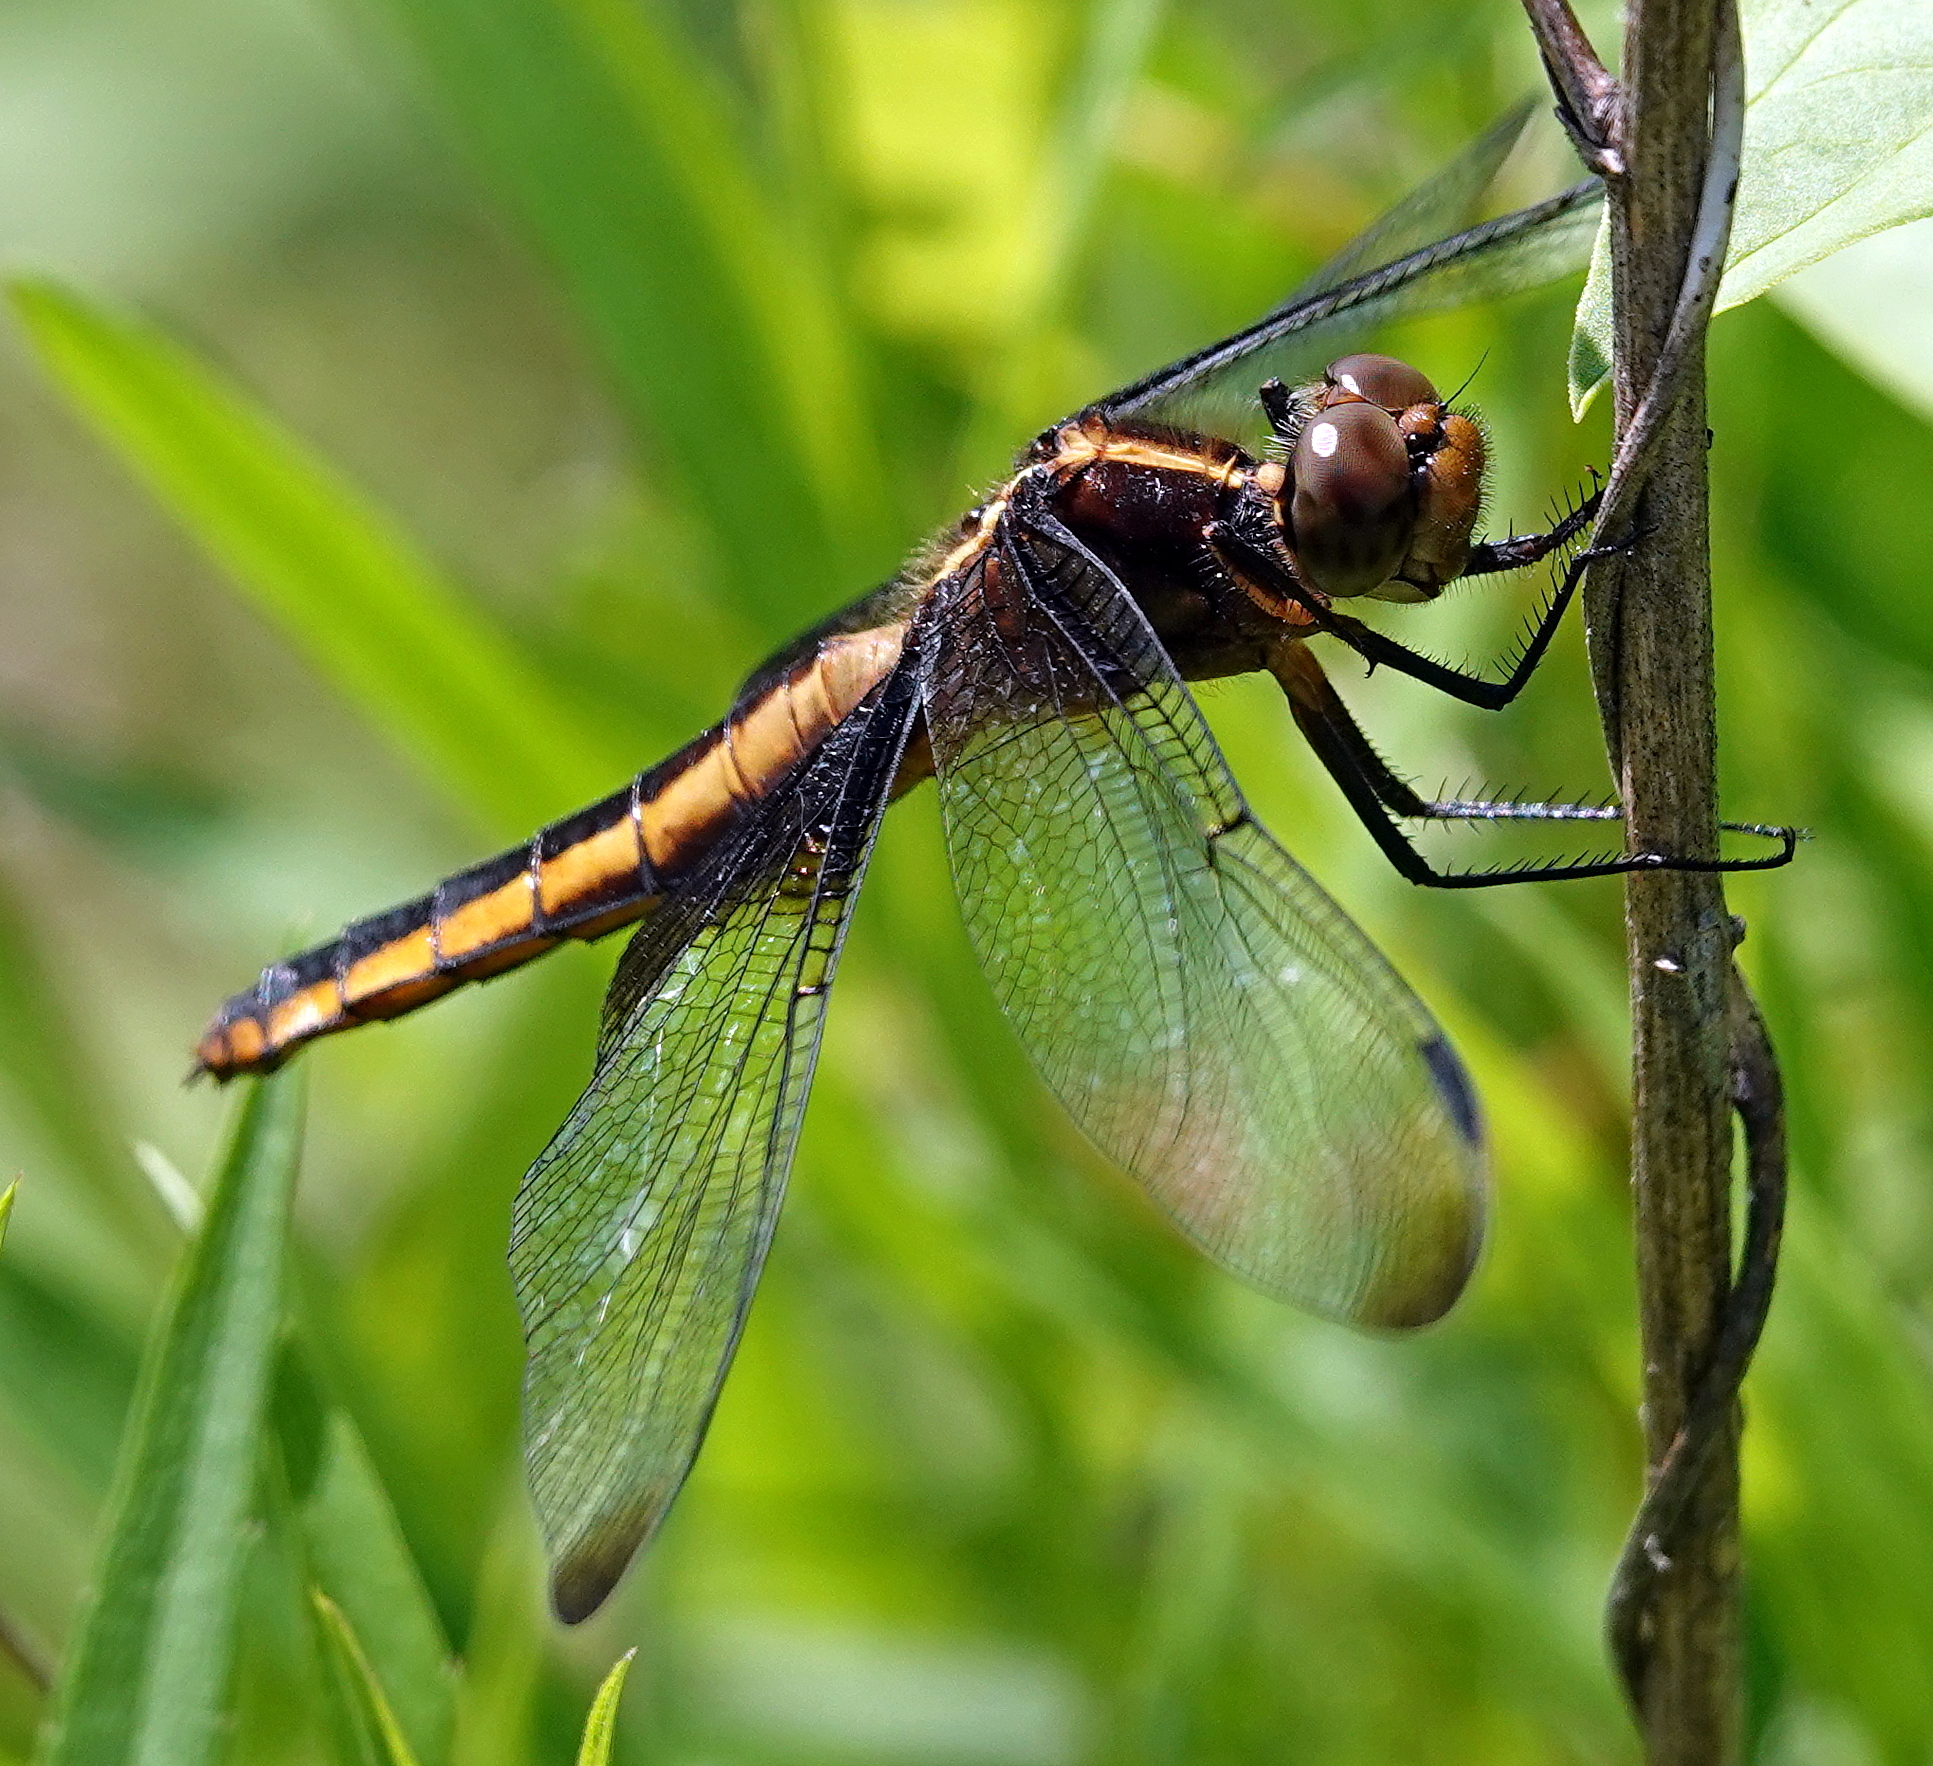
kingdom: Animalia
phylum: Arthropoda
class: Insecta
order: Odonata
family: Libellulidae
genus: Libellula
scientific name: Libellula luctuosa
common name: Widow skimmer
